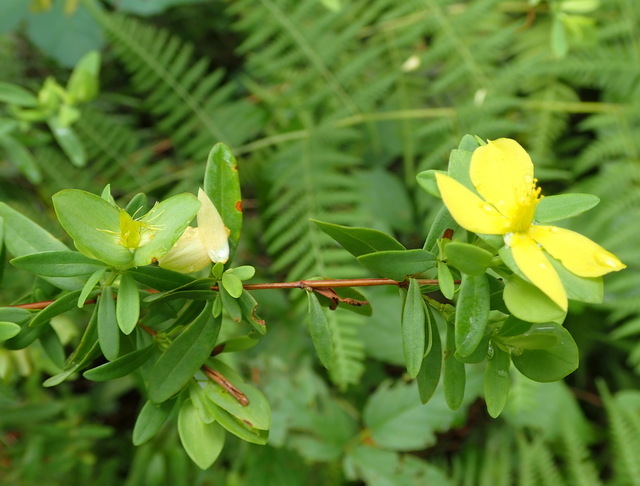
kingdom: Plantae
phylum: Tracheophyta
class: Magnoliopsida
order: Malpighiales
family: Hypericaceae
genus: Hypericum
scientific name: Hypericum hypericoides
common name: St. andrew's cross
